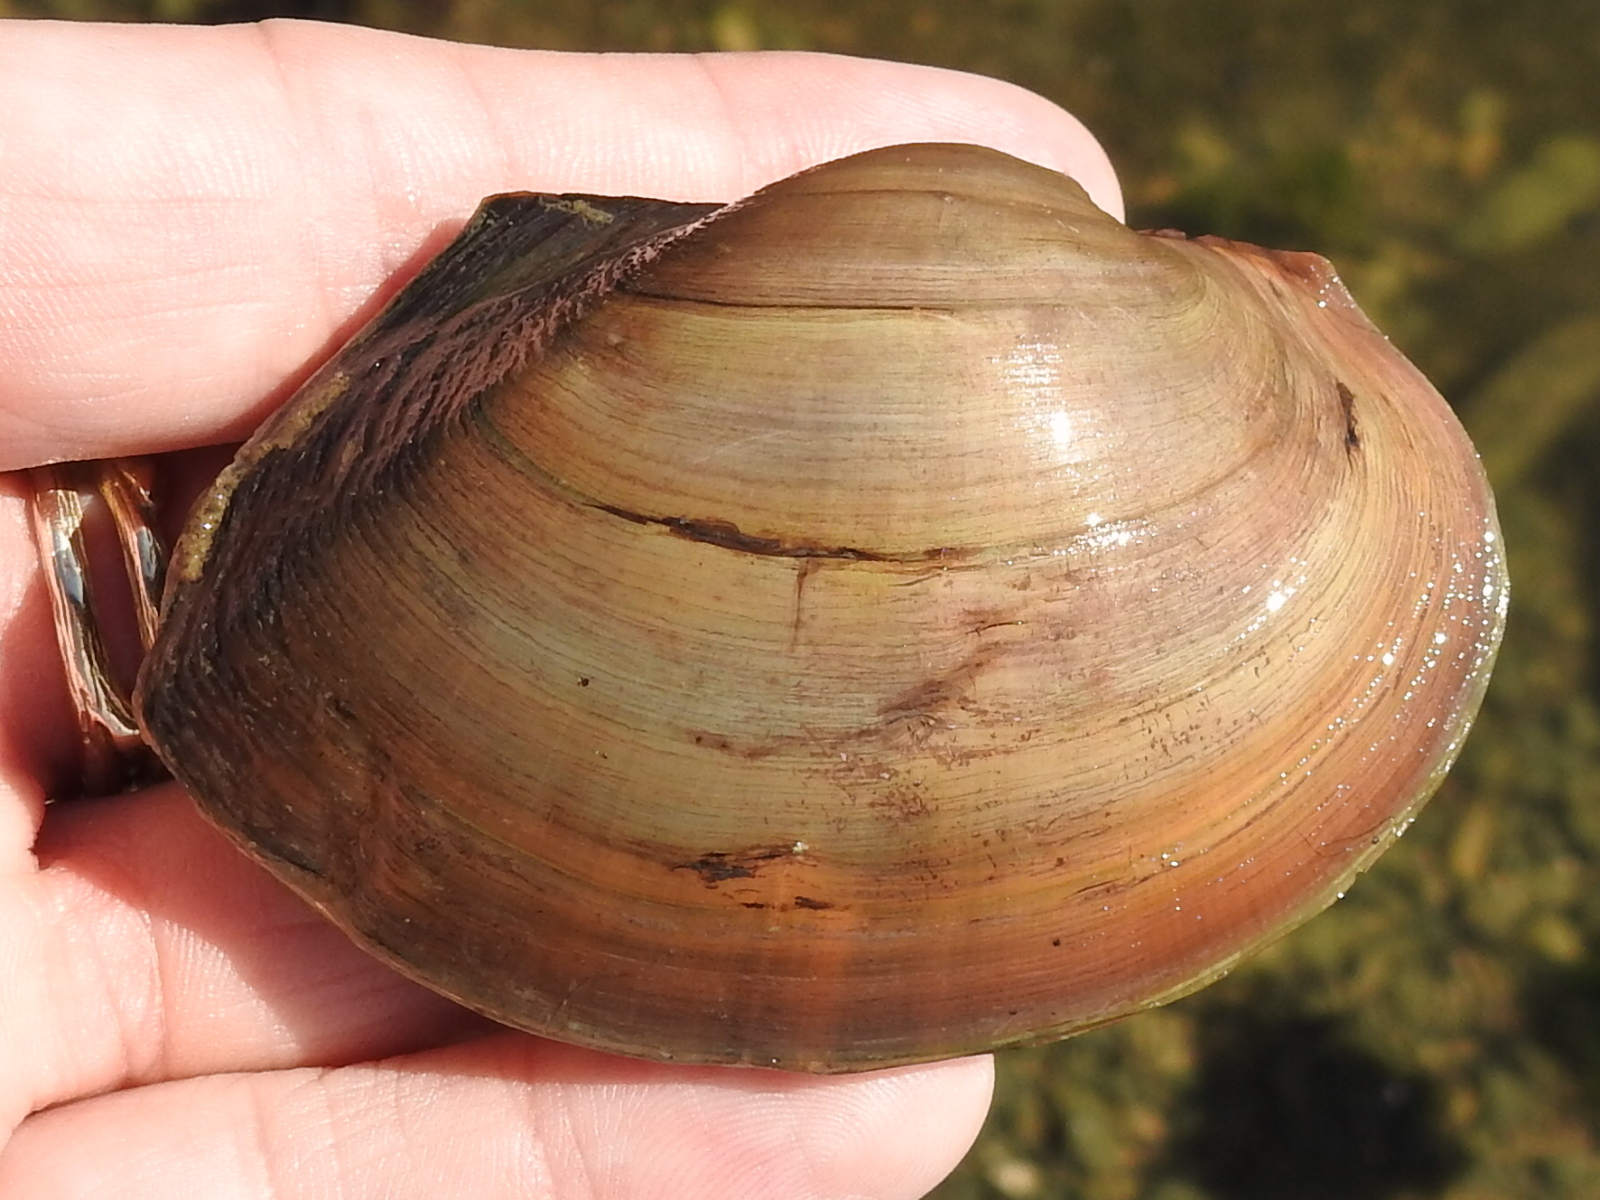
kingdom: Animalia
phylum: Mollusca
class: Bivalvia
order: Unionida
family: Unionidae
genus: Pyganodon
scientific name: Pyganodon grandis
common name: Giant floater
